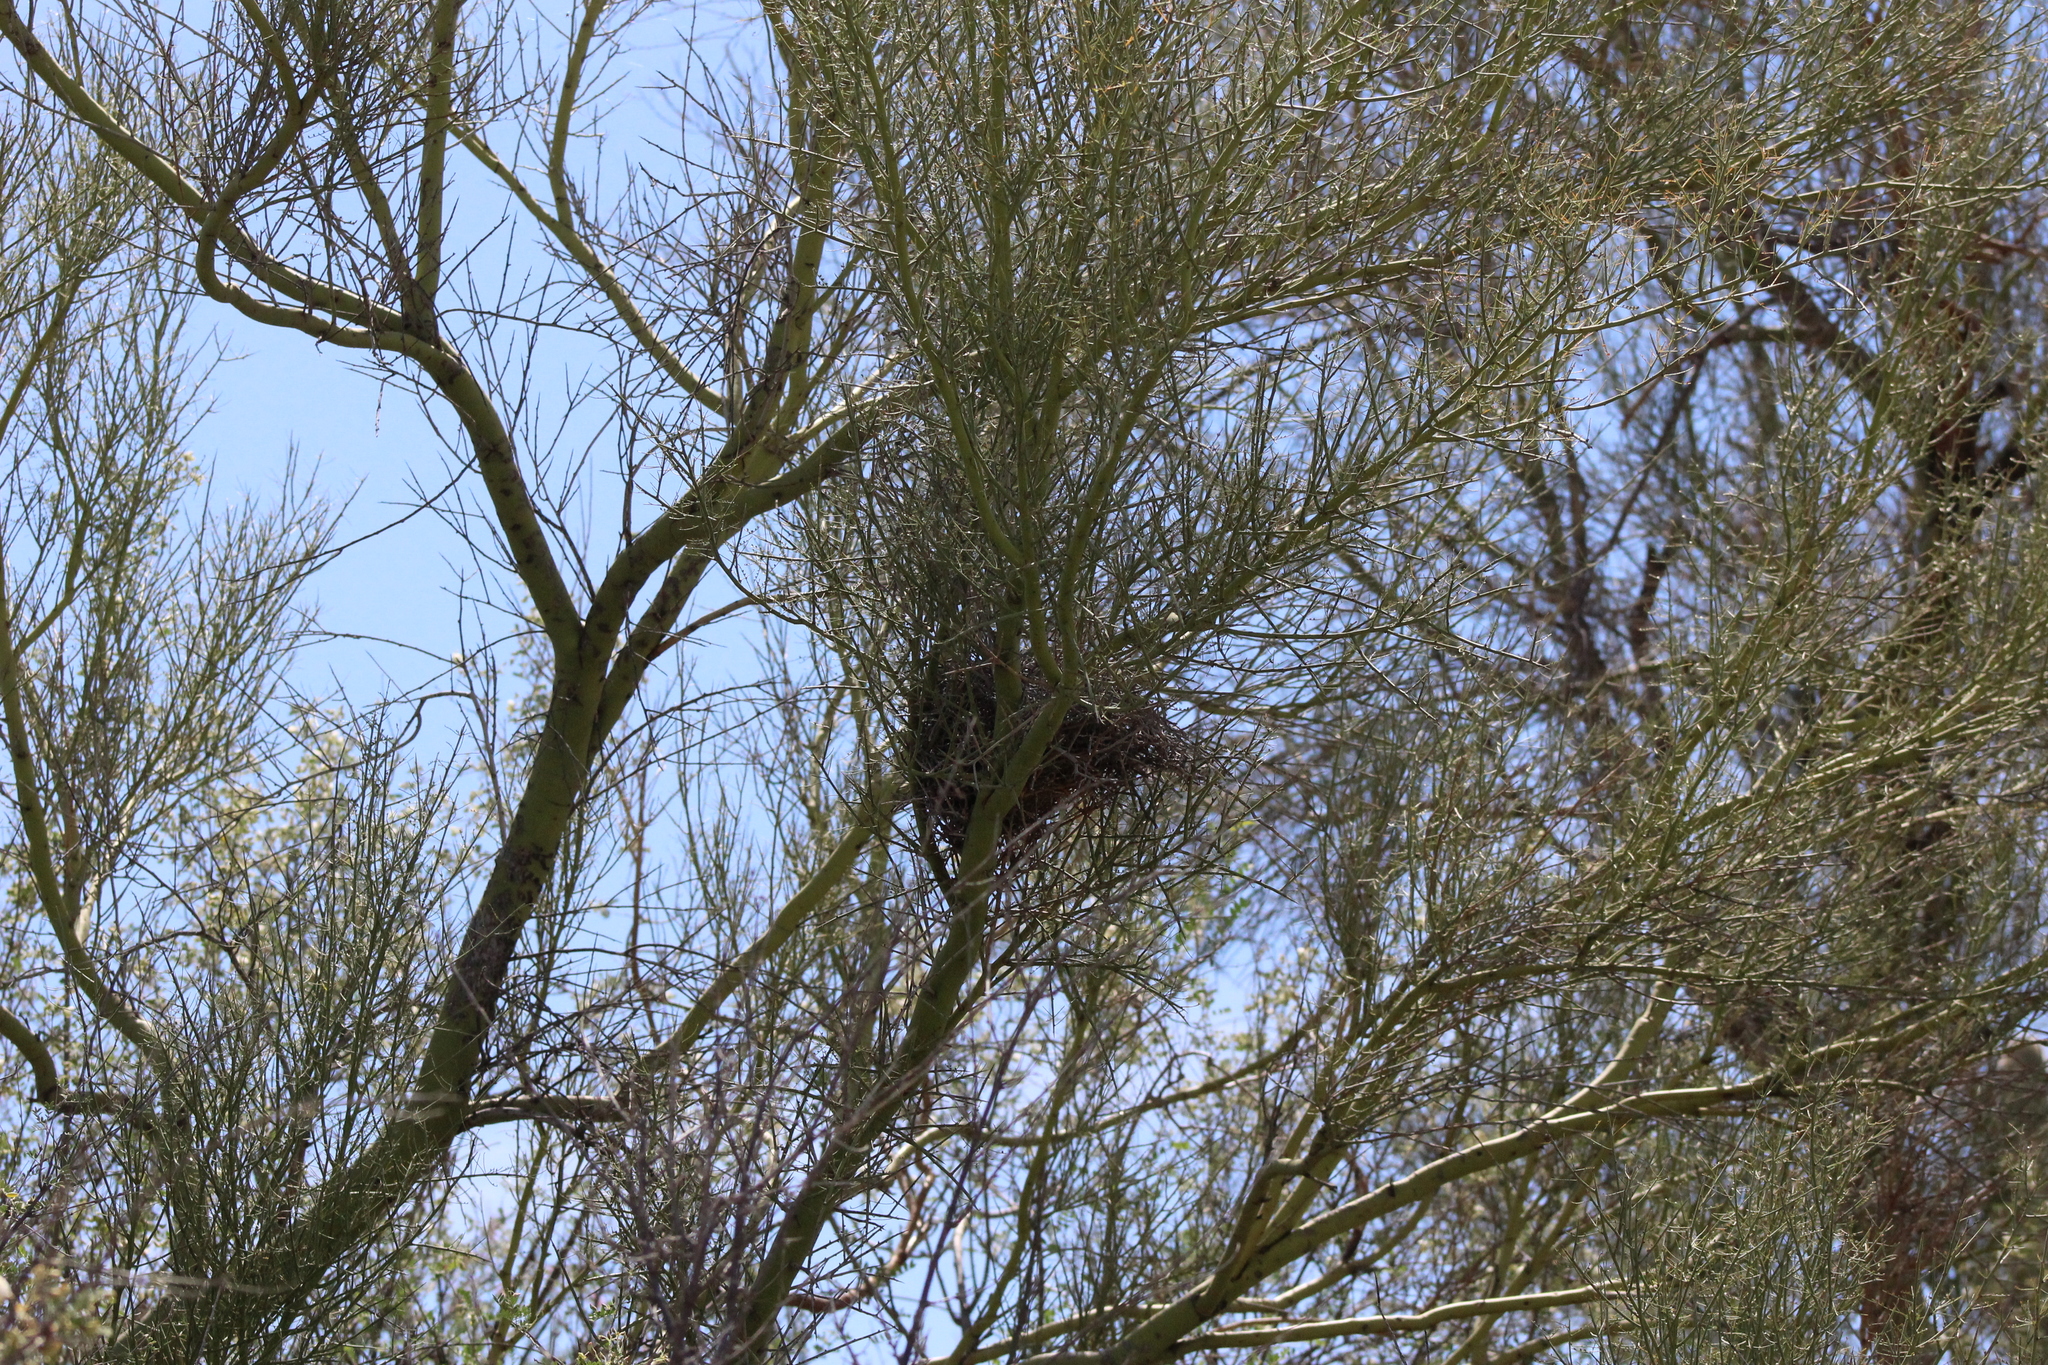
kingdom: Animalia
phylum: Chordata
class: Aves
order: Passeriformes
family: Remizidae
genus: Auriparus
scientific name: Auriparus flaviceps
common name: Verdin
